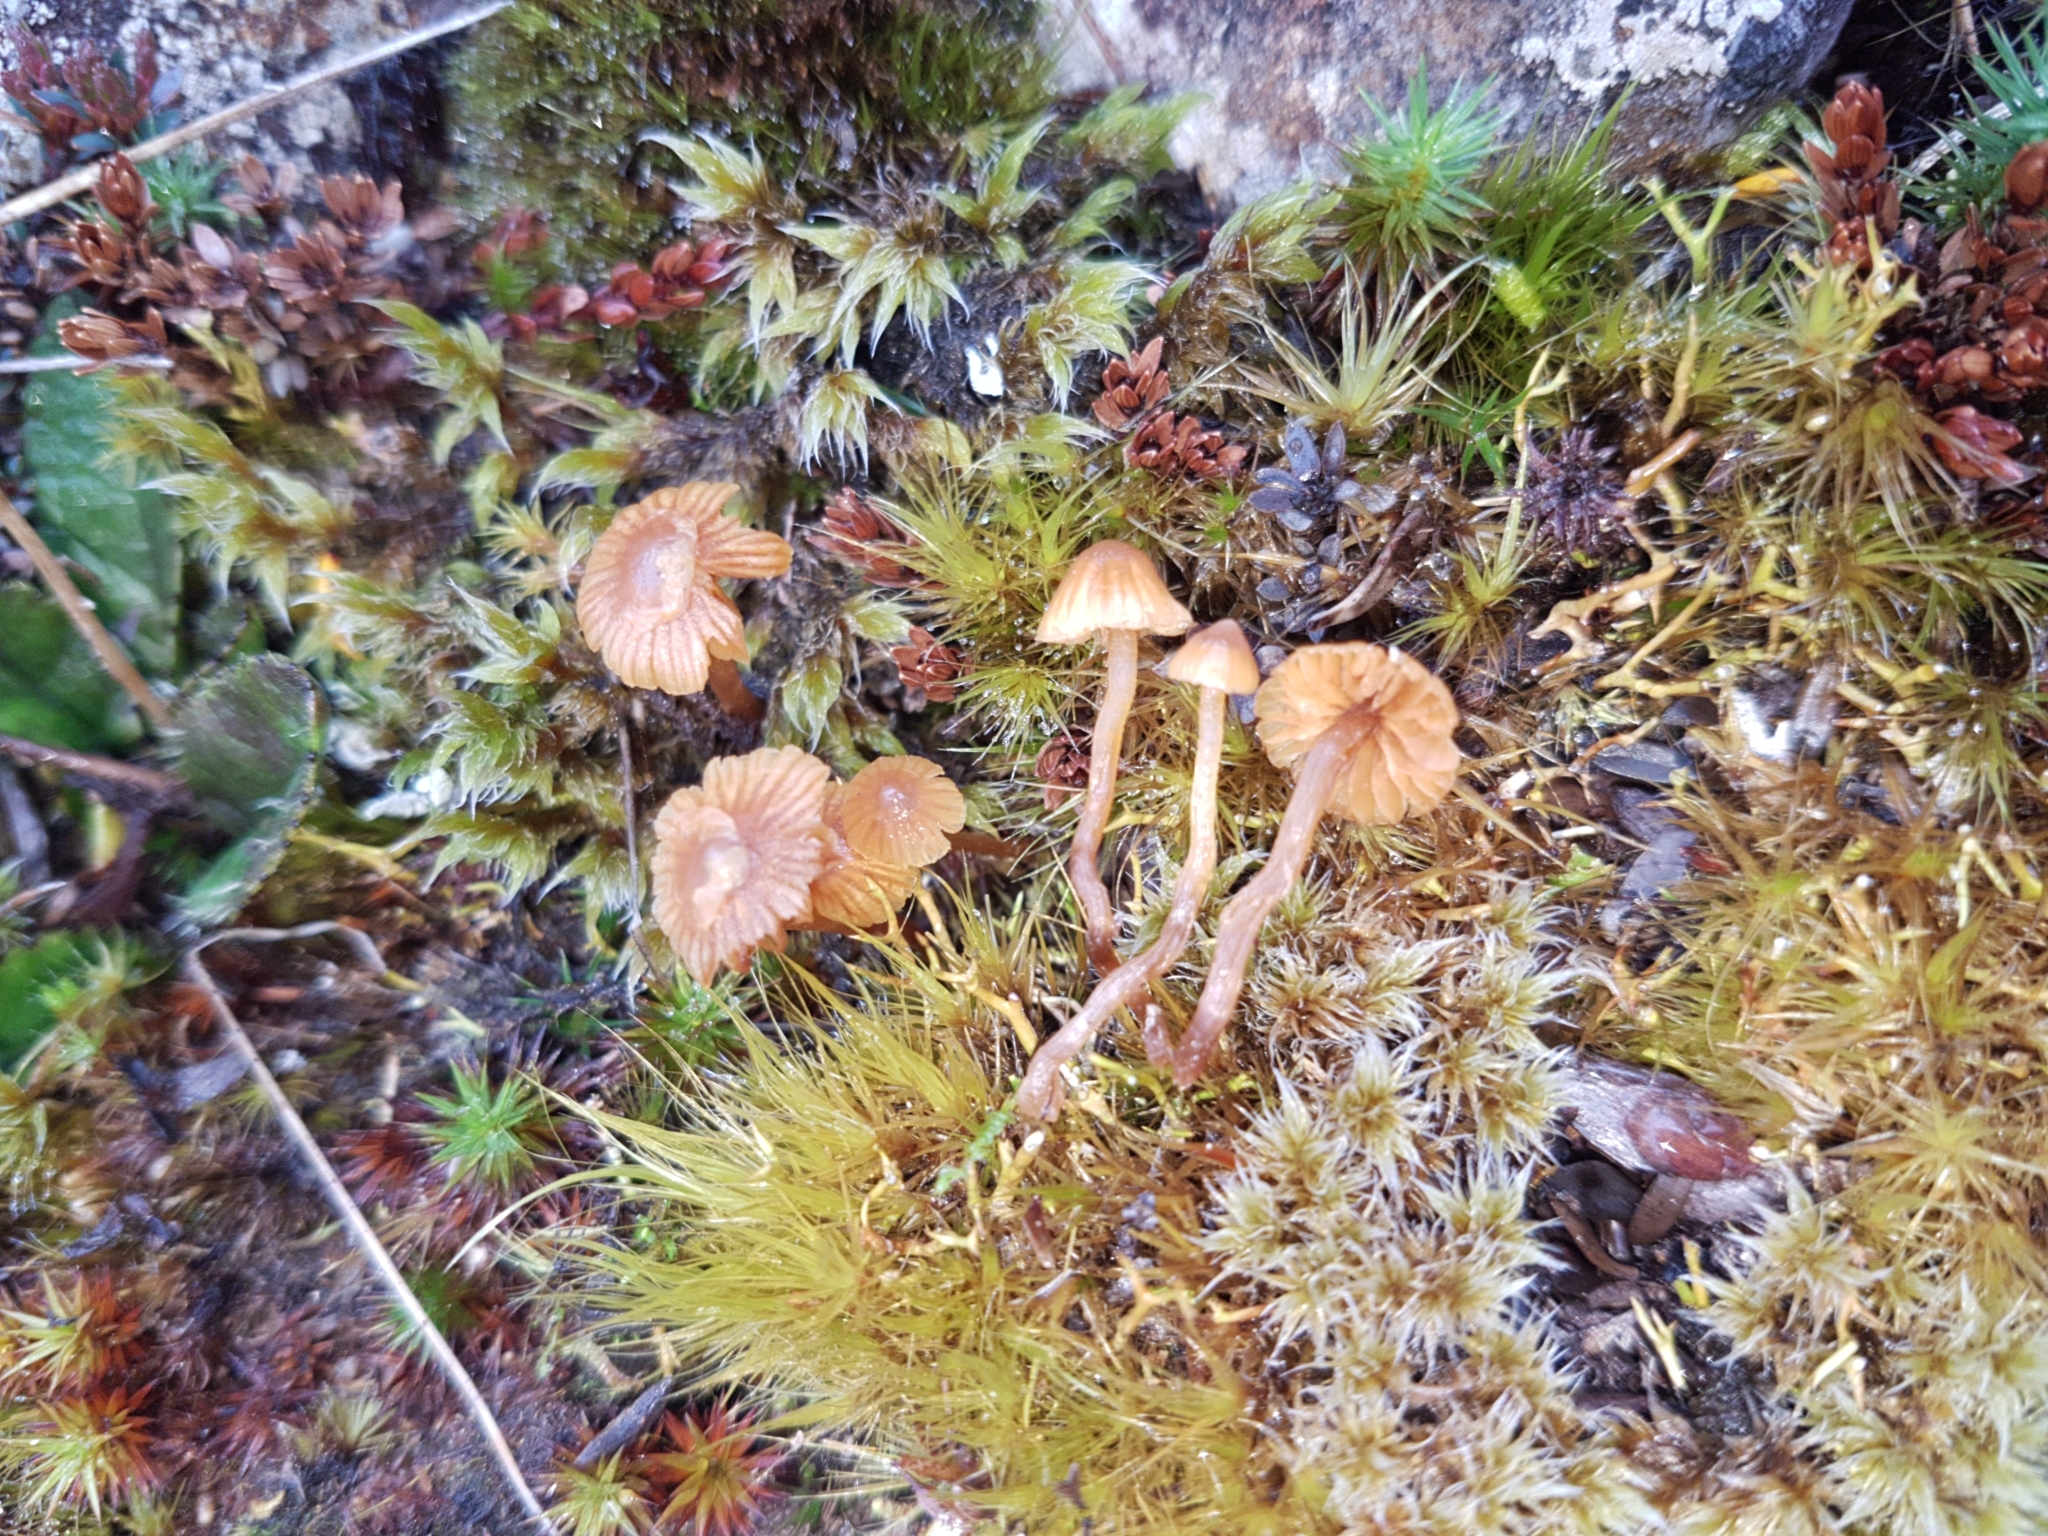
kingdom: Fungi
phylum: Basidiomycota
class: Agaricomycetes
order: Agaricales
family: Hymenogastraceae
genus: Galerina
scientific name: Galerina
